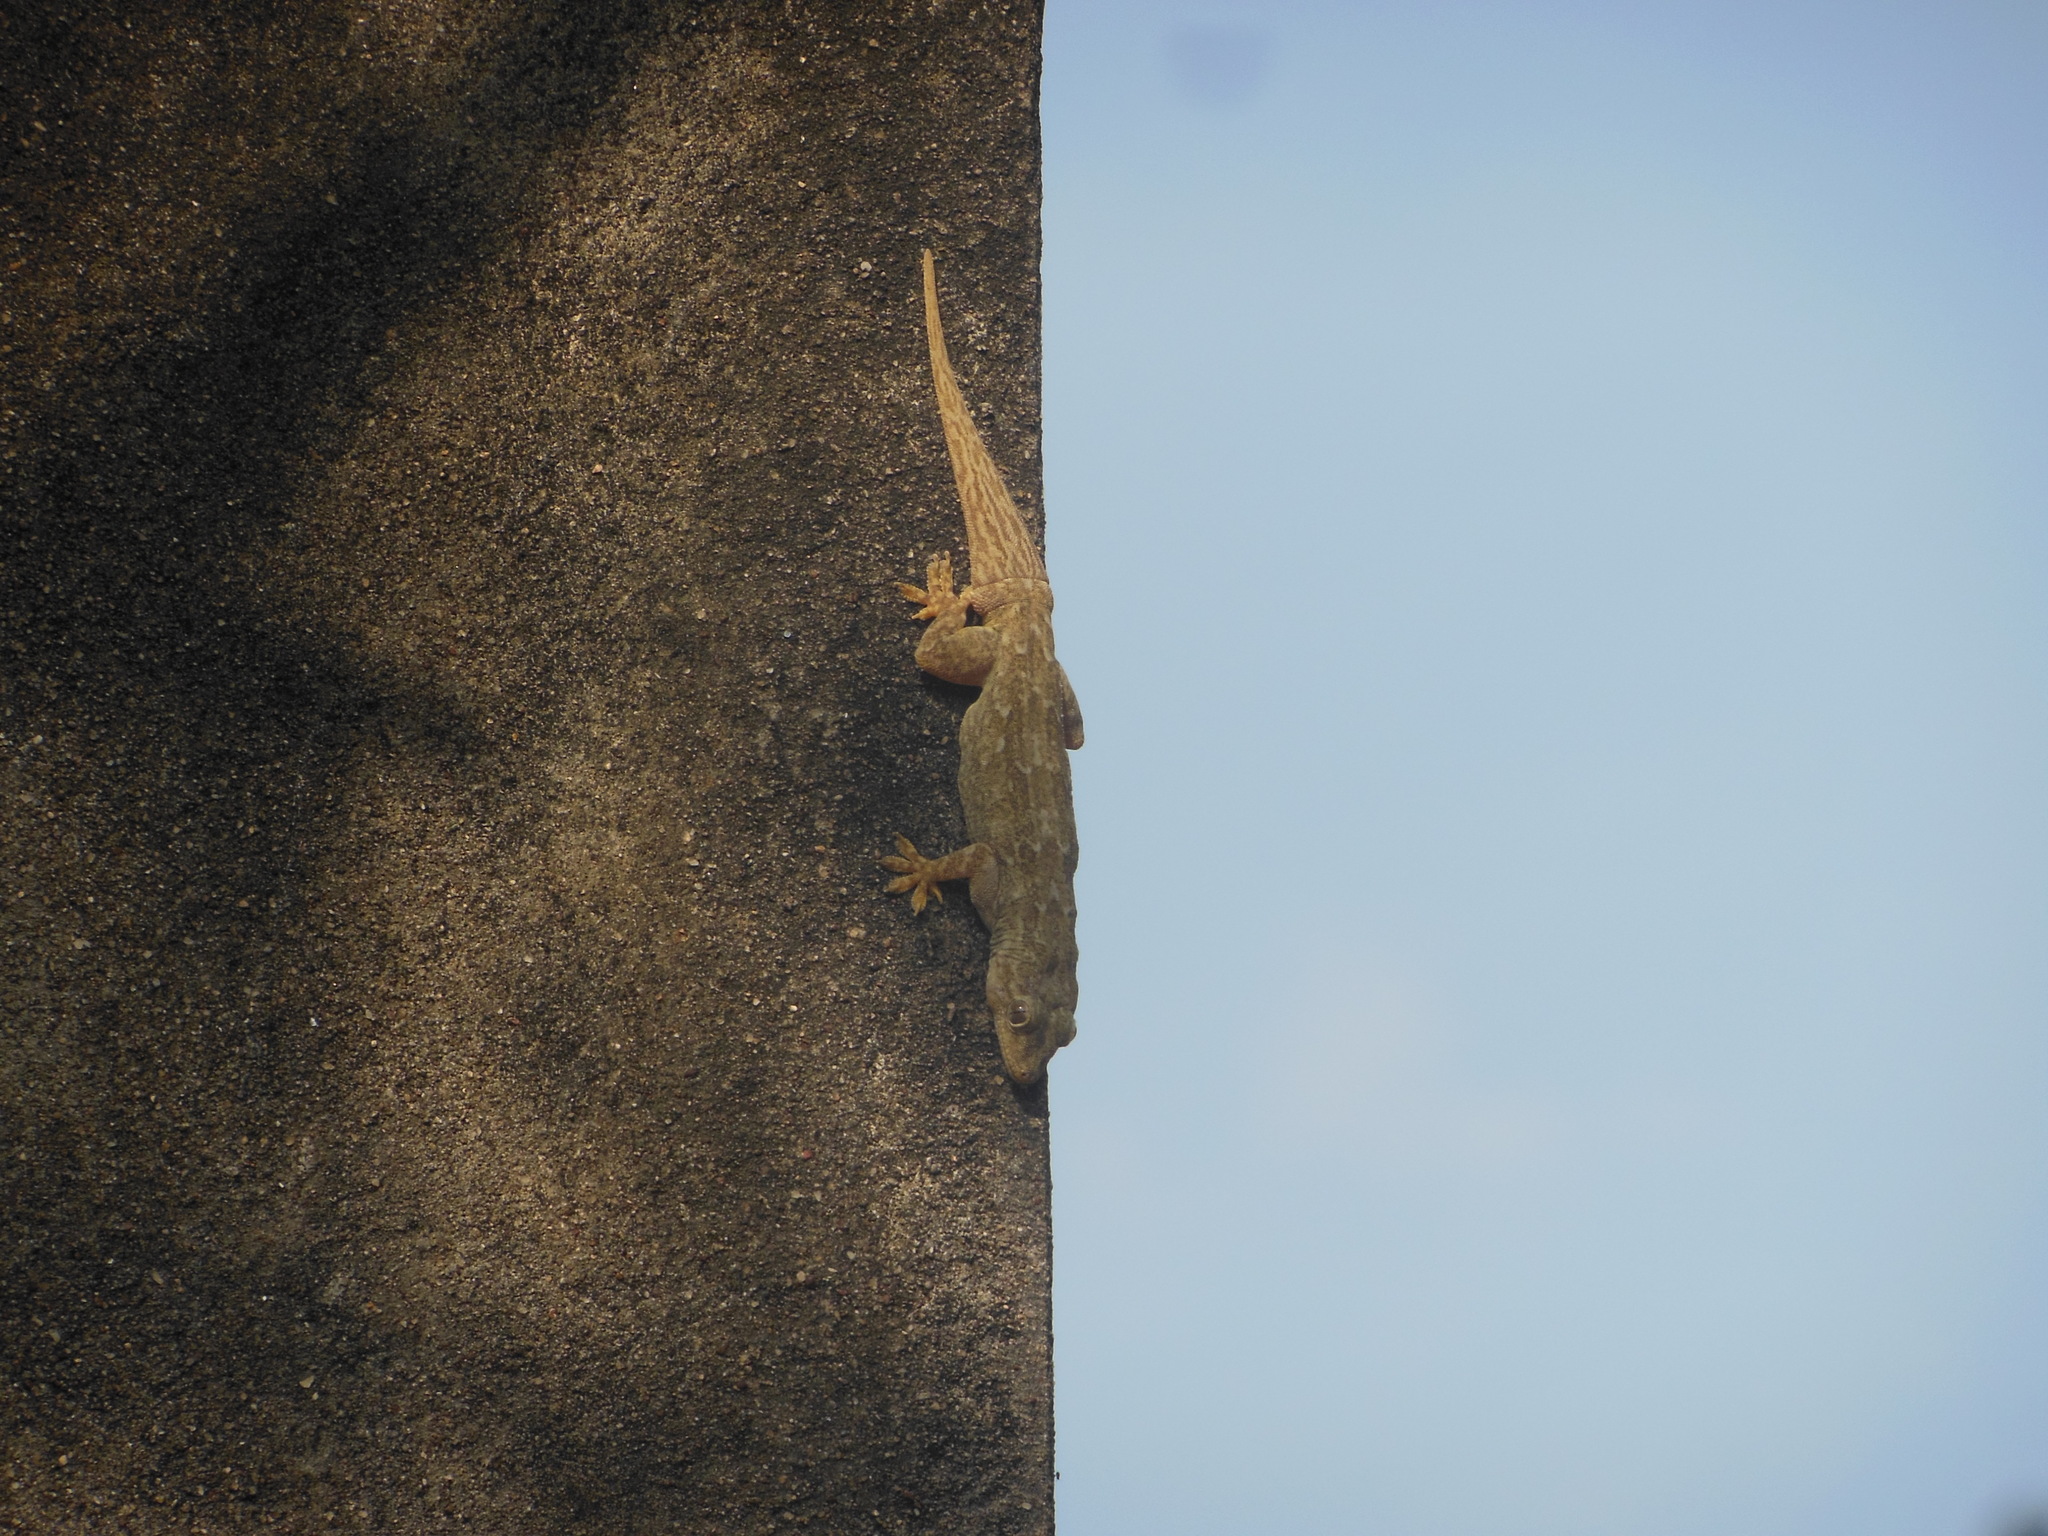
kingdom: Animalia
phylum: Chordata
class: Squamata
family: Gekkonidae
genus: Hemidactylus
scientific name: Hemidactylus frenatus
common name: Common house gecko
